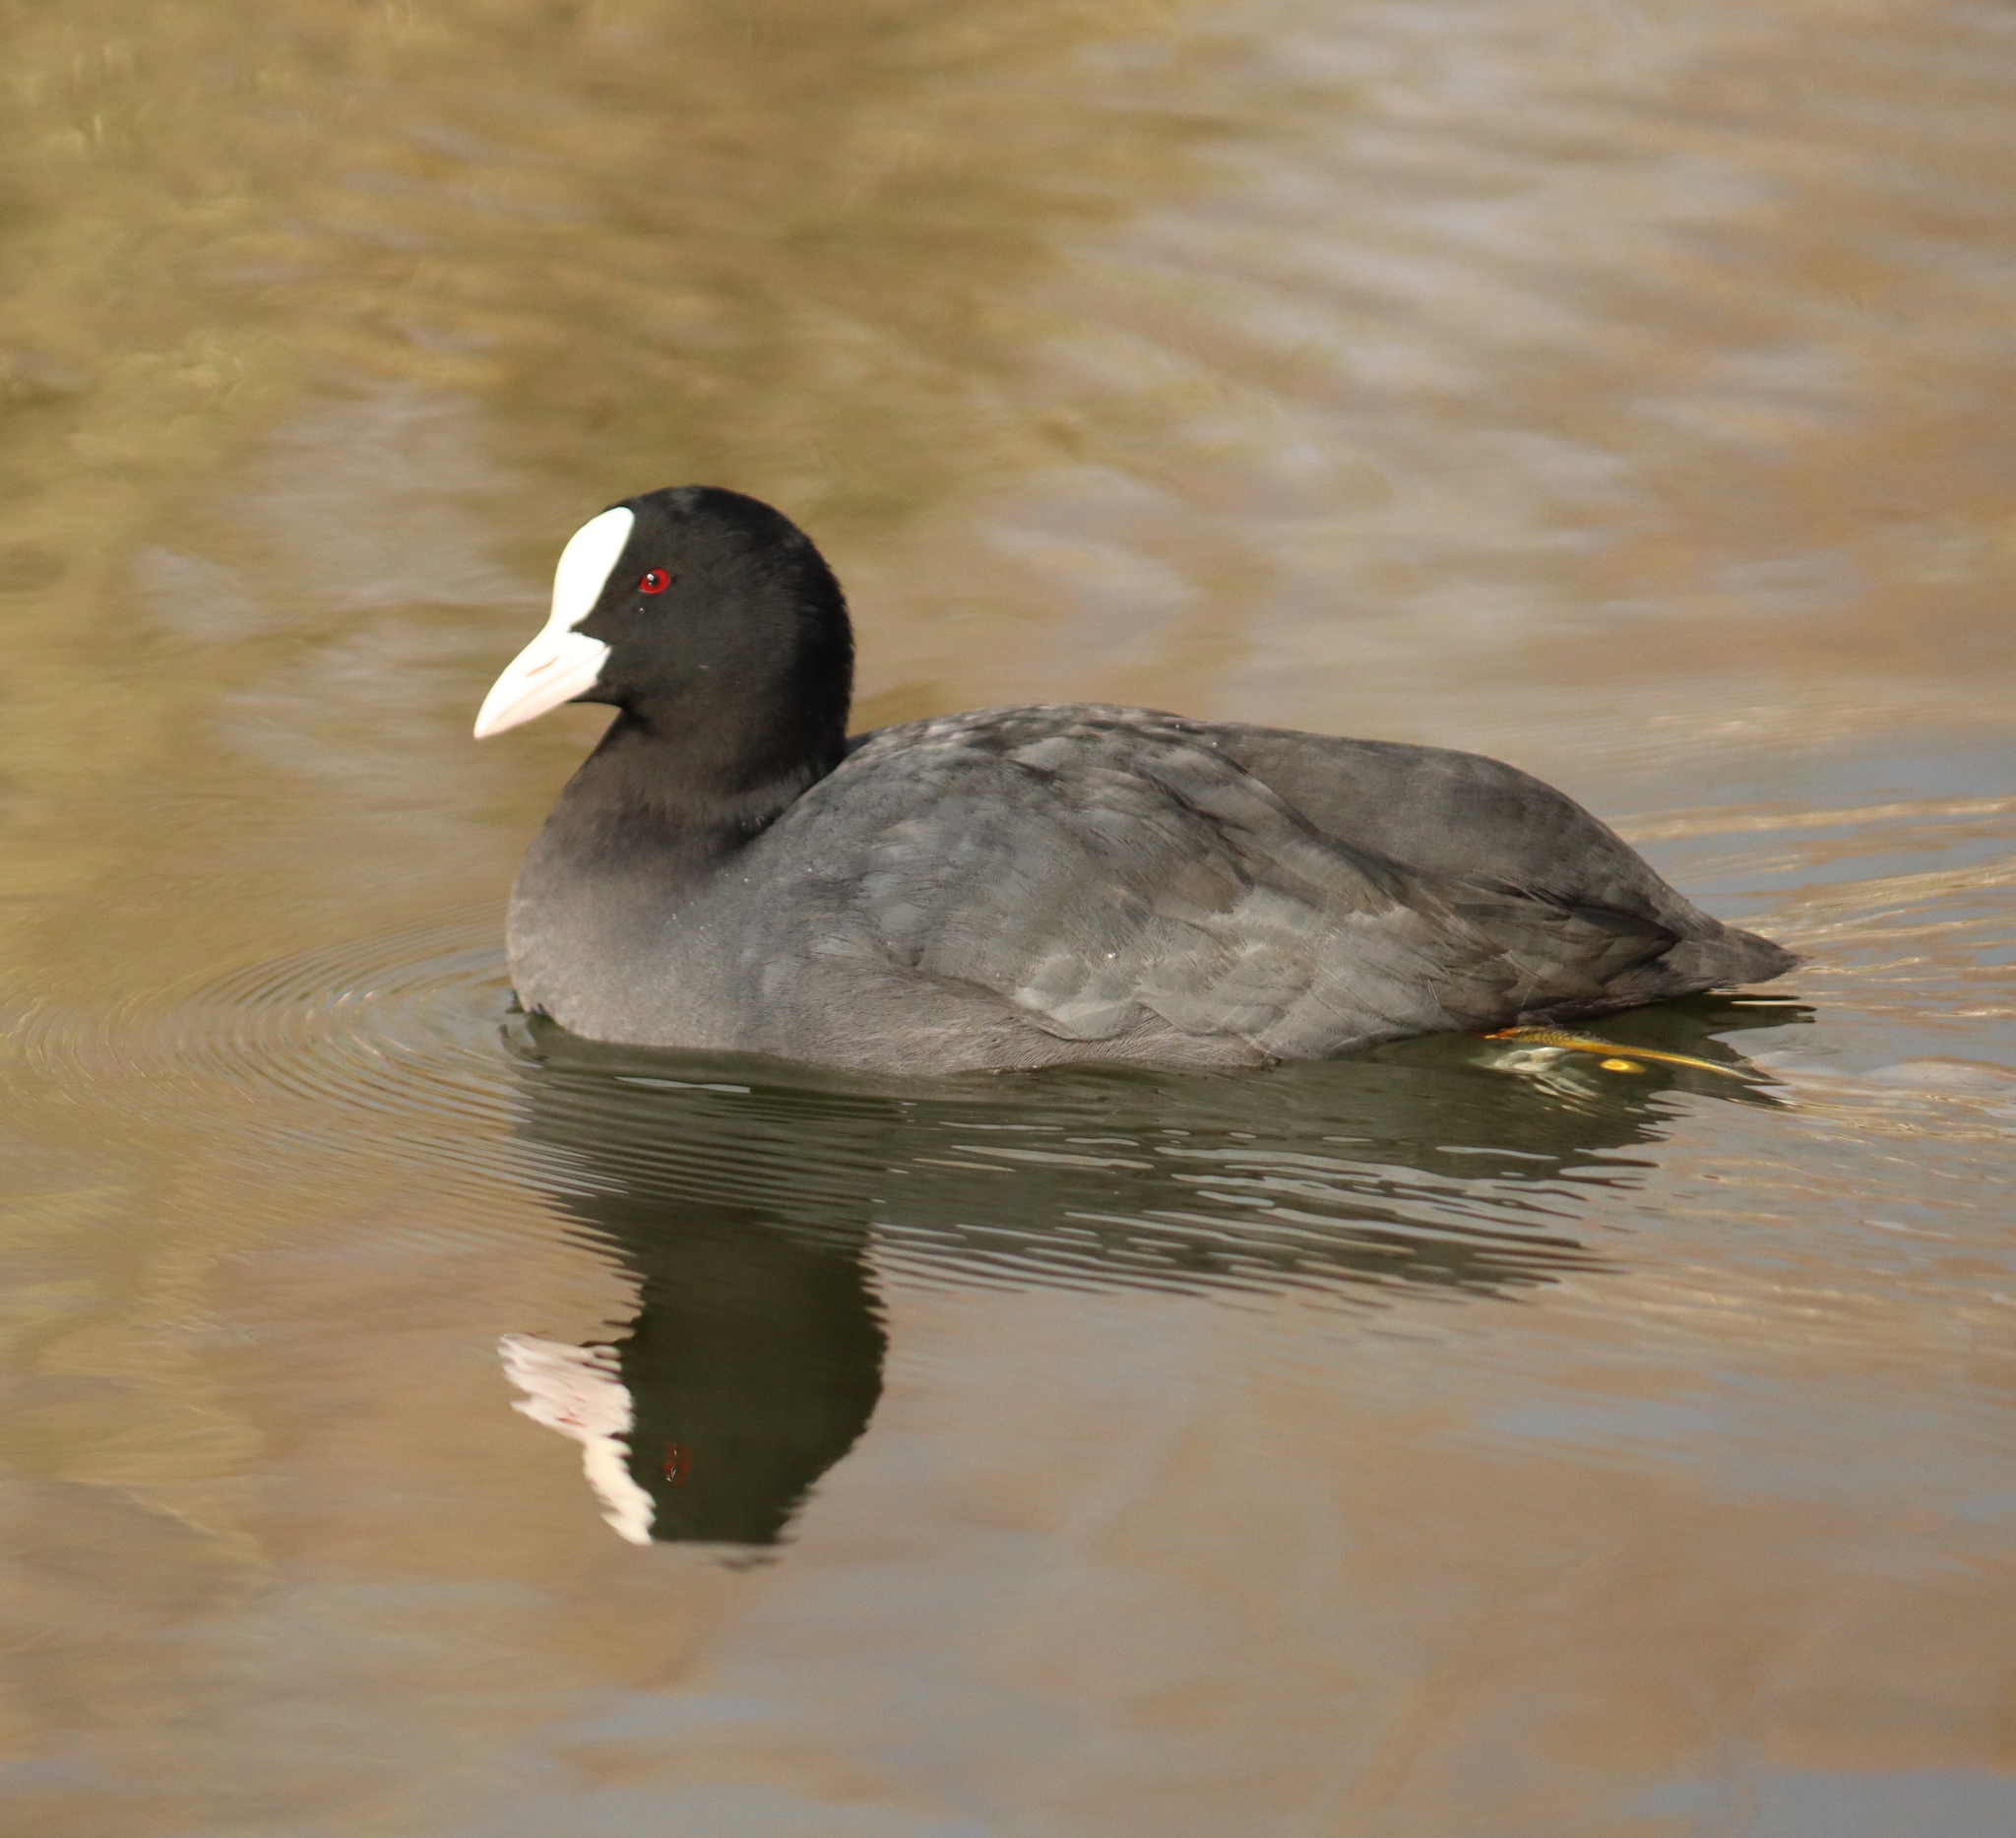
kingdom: Animalia
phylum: Chordata
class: Aves
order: Gruiformes
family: Rallidae
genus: Fulica
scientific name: Fulica atra
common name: Eurasian coot
